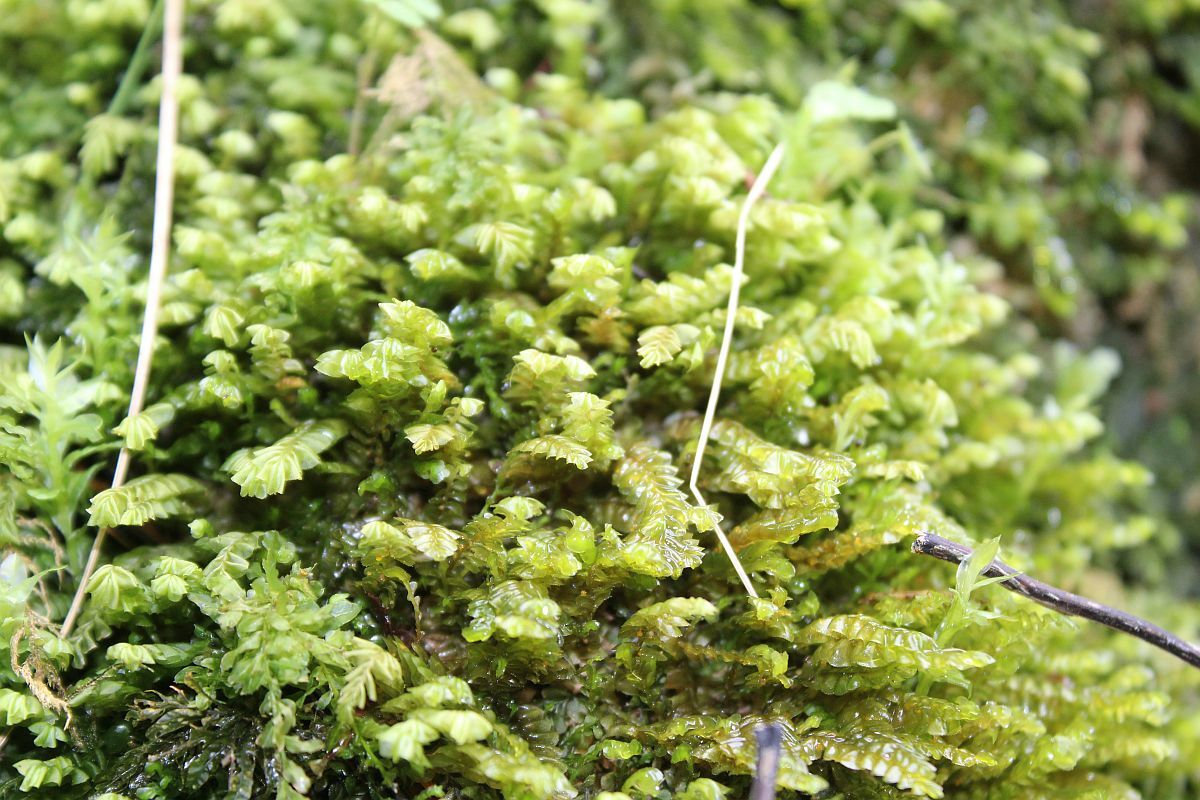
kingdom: Plantae
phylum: Marchantiophyta
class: Jungermanniopsida
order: Jungermanniales
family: Plagiochilaceae
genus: Plagiochila
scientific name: Plagiochila asplenioides
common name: Greater featherwort
